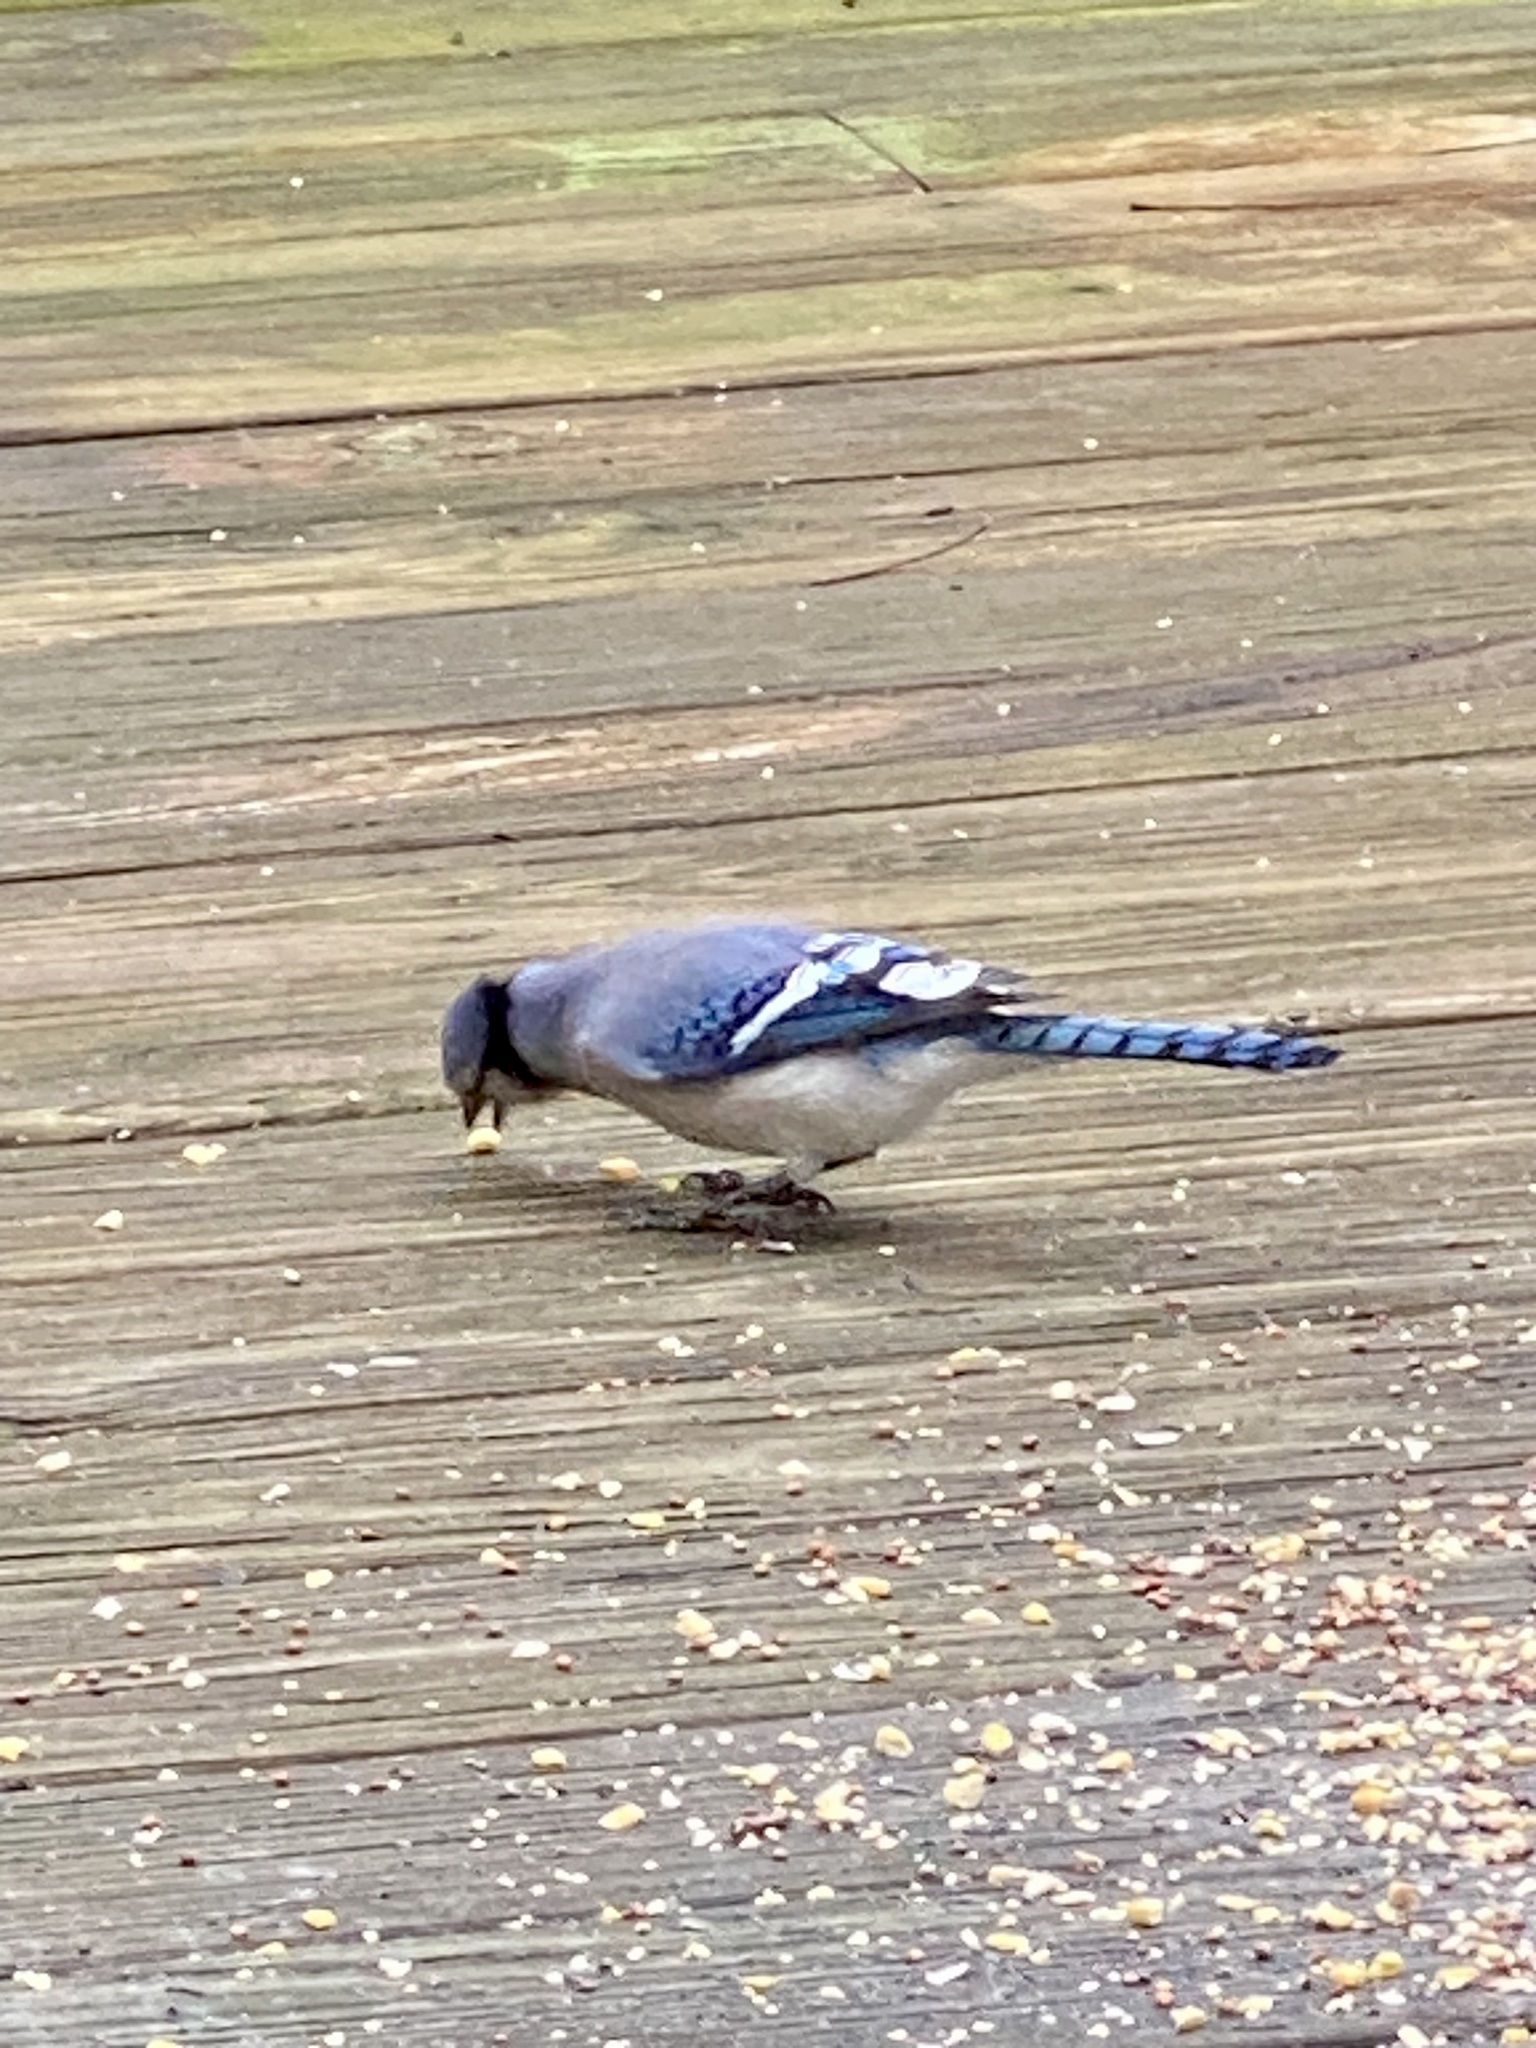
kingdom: Animalia
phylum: Chordata
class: Aves
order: Passeriformes
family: Corvidae
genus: Cyanocitta
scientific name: Cyanocitta cristata
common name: Blue jay
